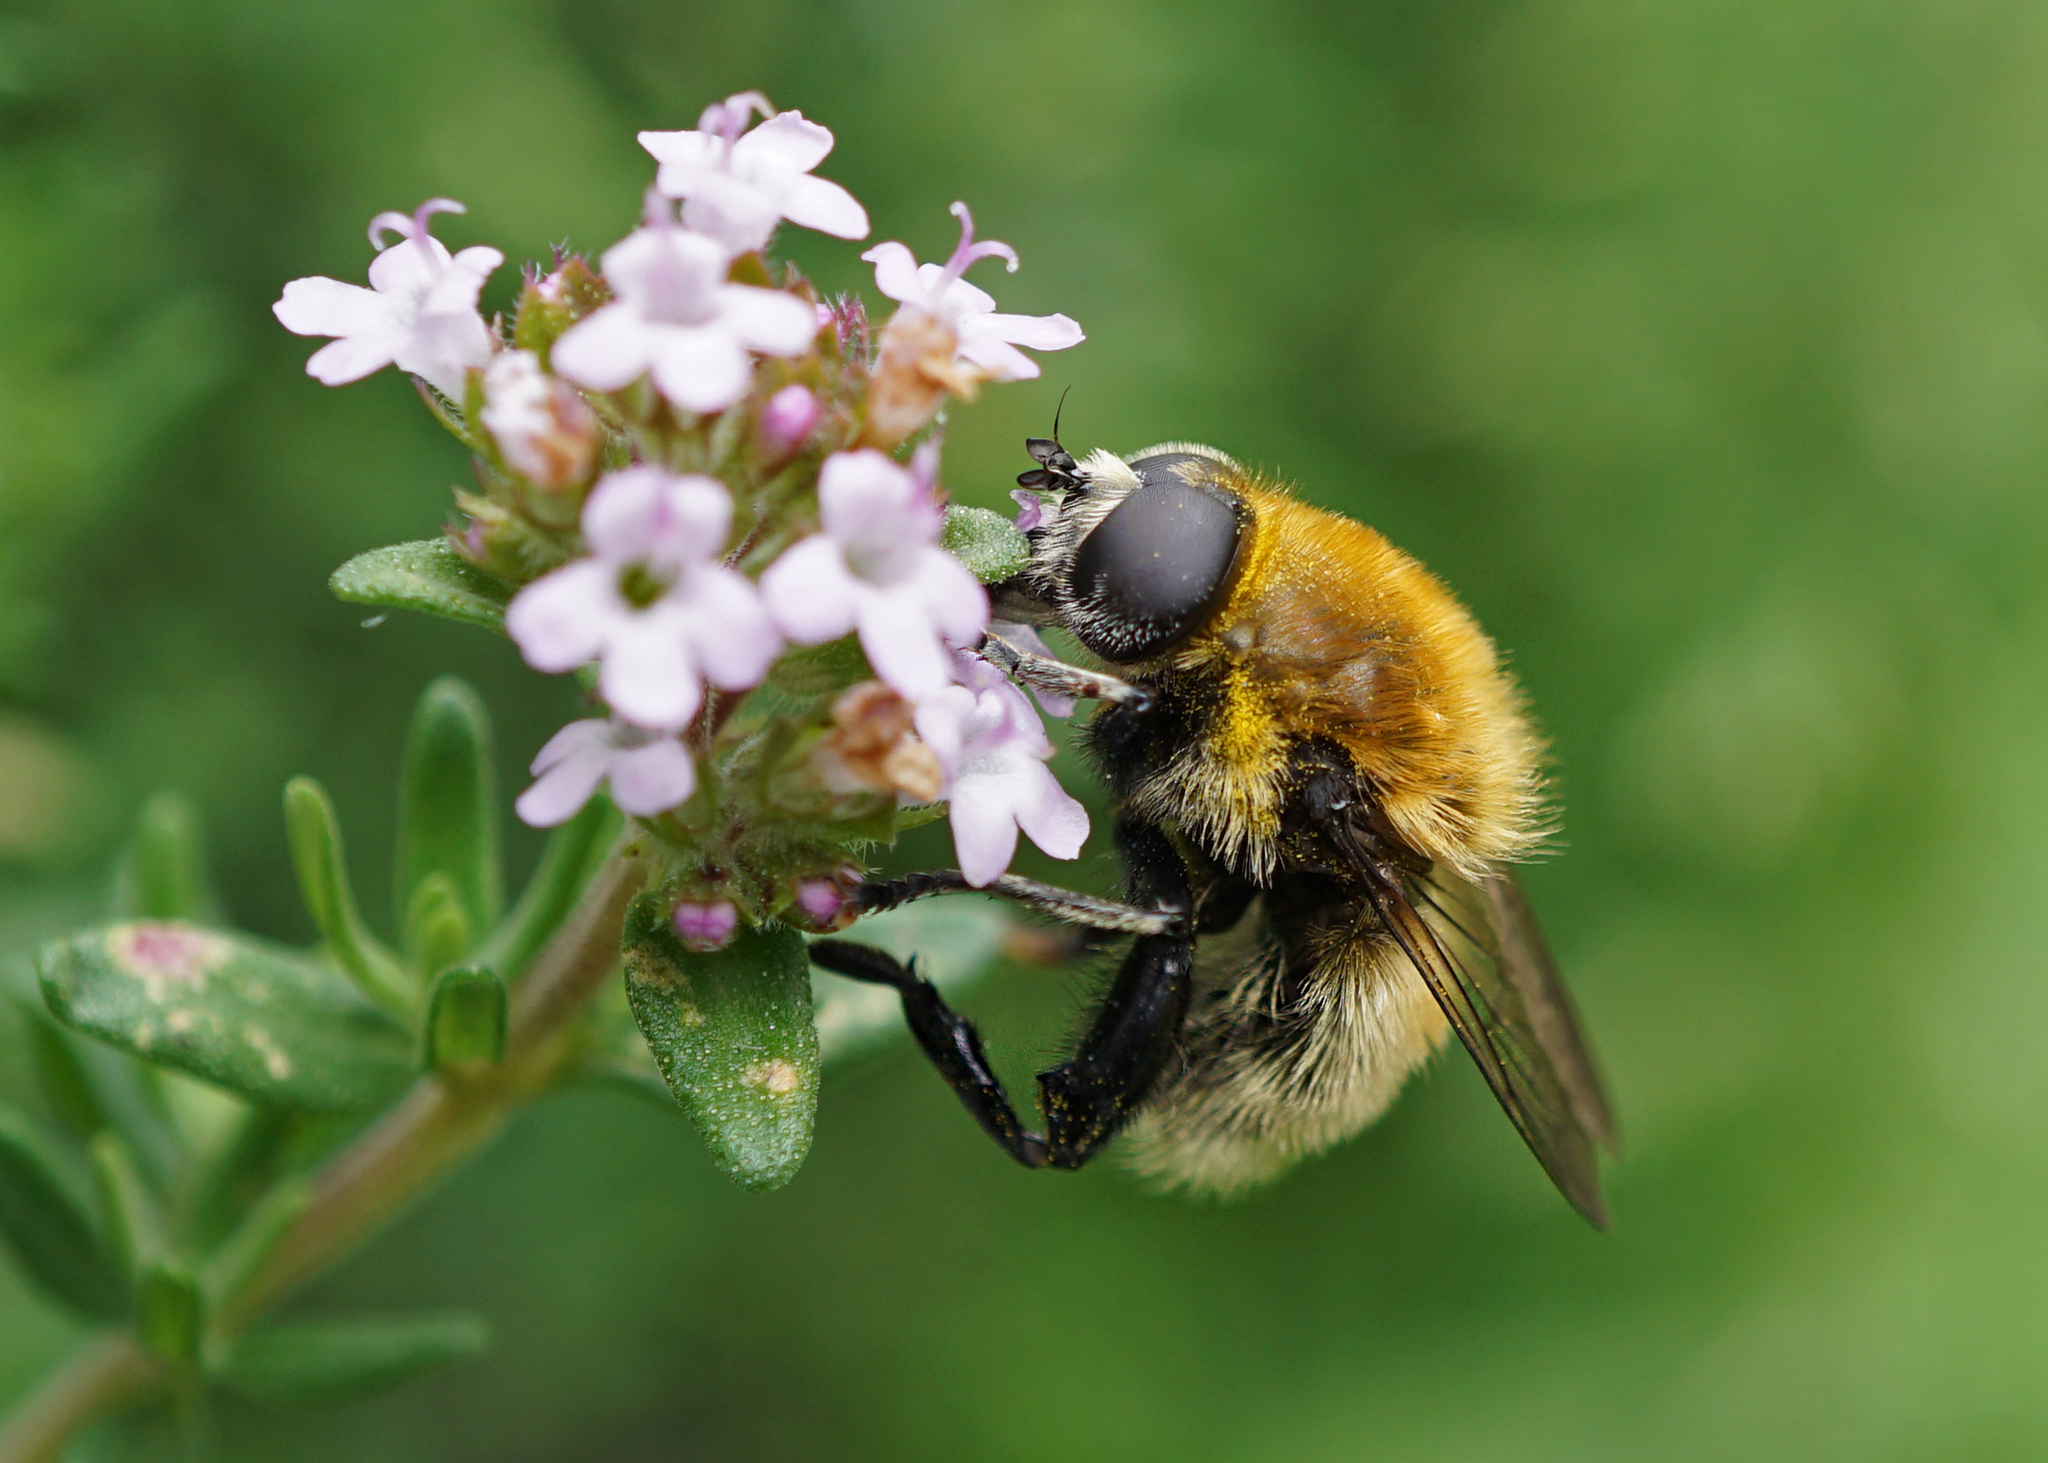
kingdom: Animalia
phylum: Arthropoda
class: Insecta
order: Diptera
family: Syrphidae
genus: Merodon
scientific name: Merodon equestris
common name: Greater bulb-fly
